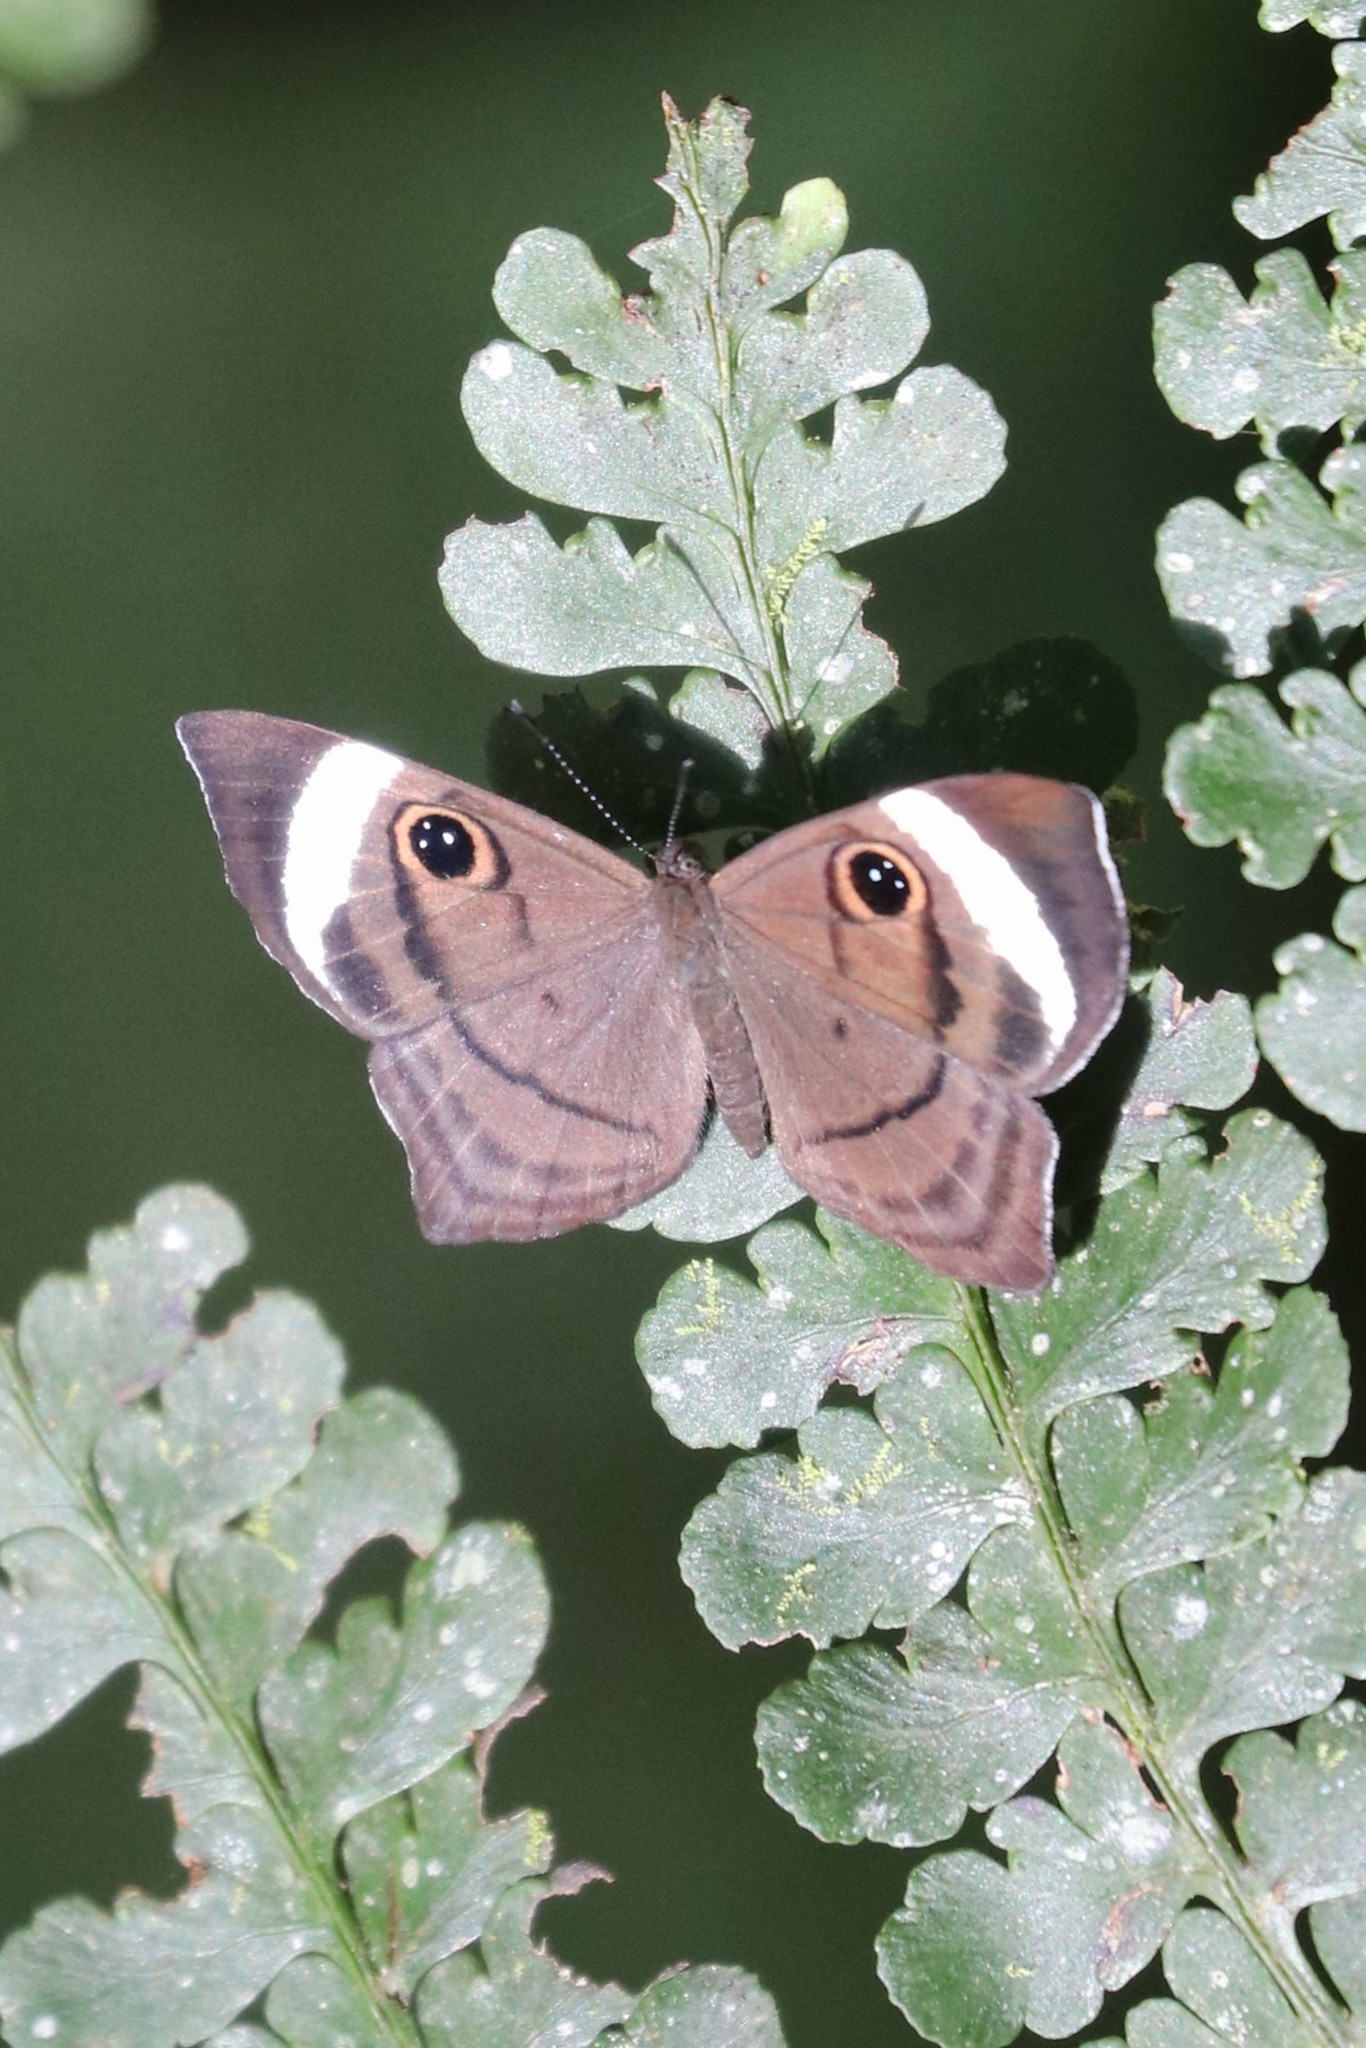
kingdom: Animalia
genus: Mesosemia
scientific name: Mesosemia metuana
